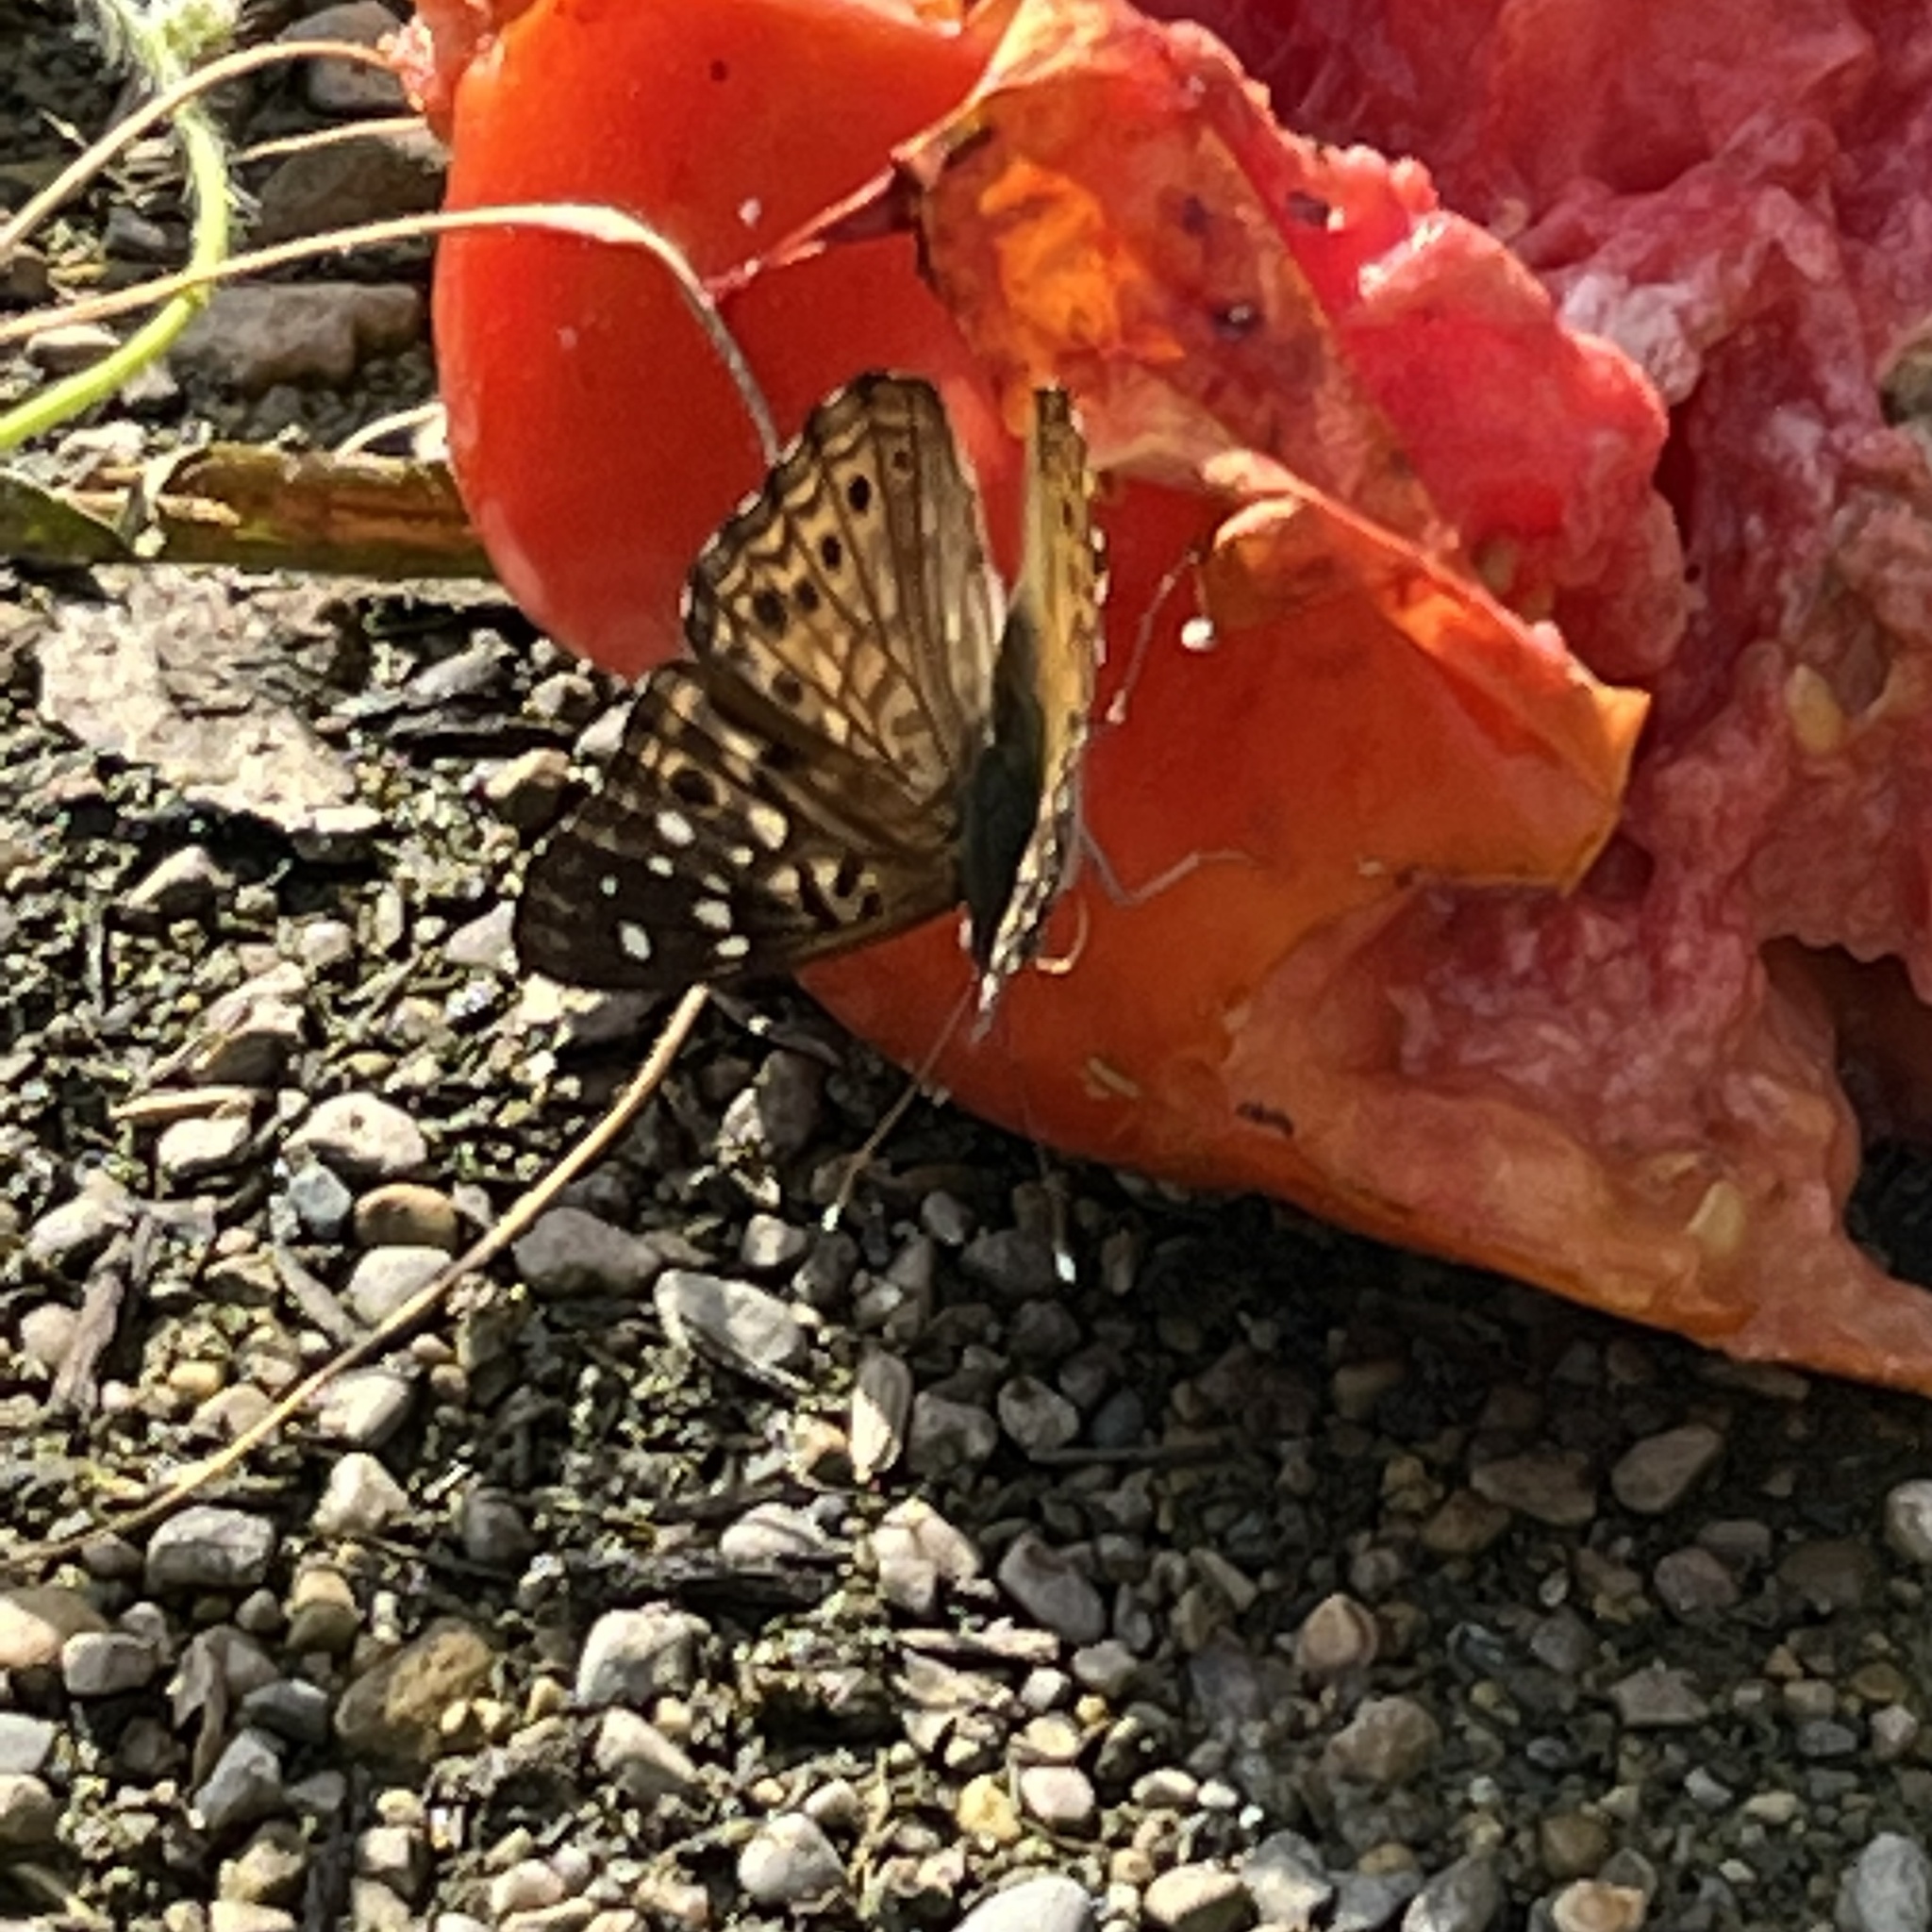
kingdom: Animalia
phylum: Arthropoda
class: Insecta
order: Lepidoptera
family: Nymphalidae
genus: Asterocampa
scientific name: Asterocampa celtis
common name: Hackberry emperor
